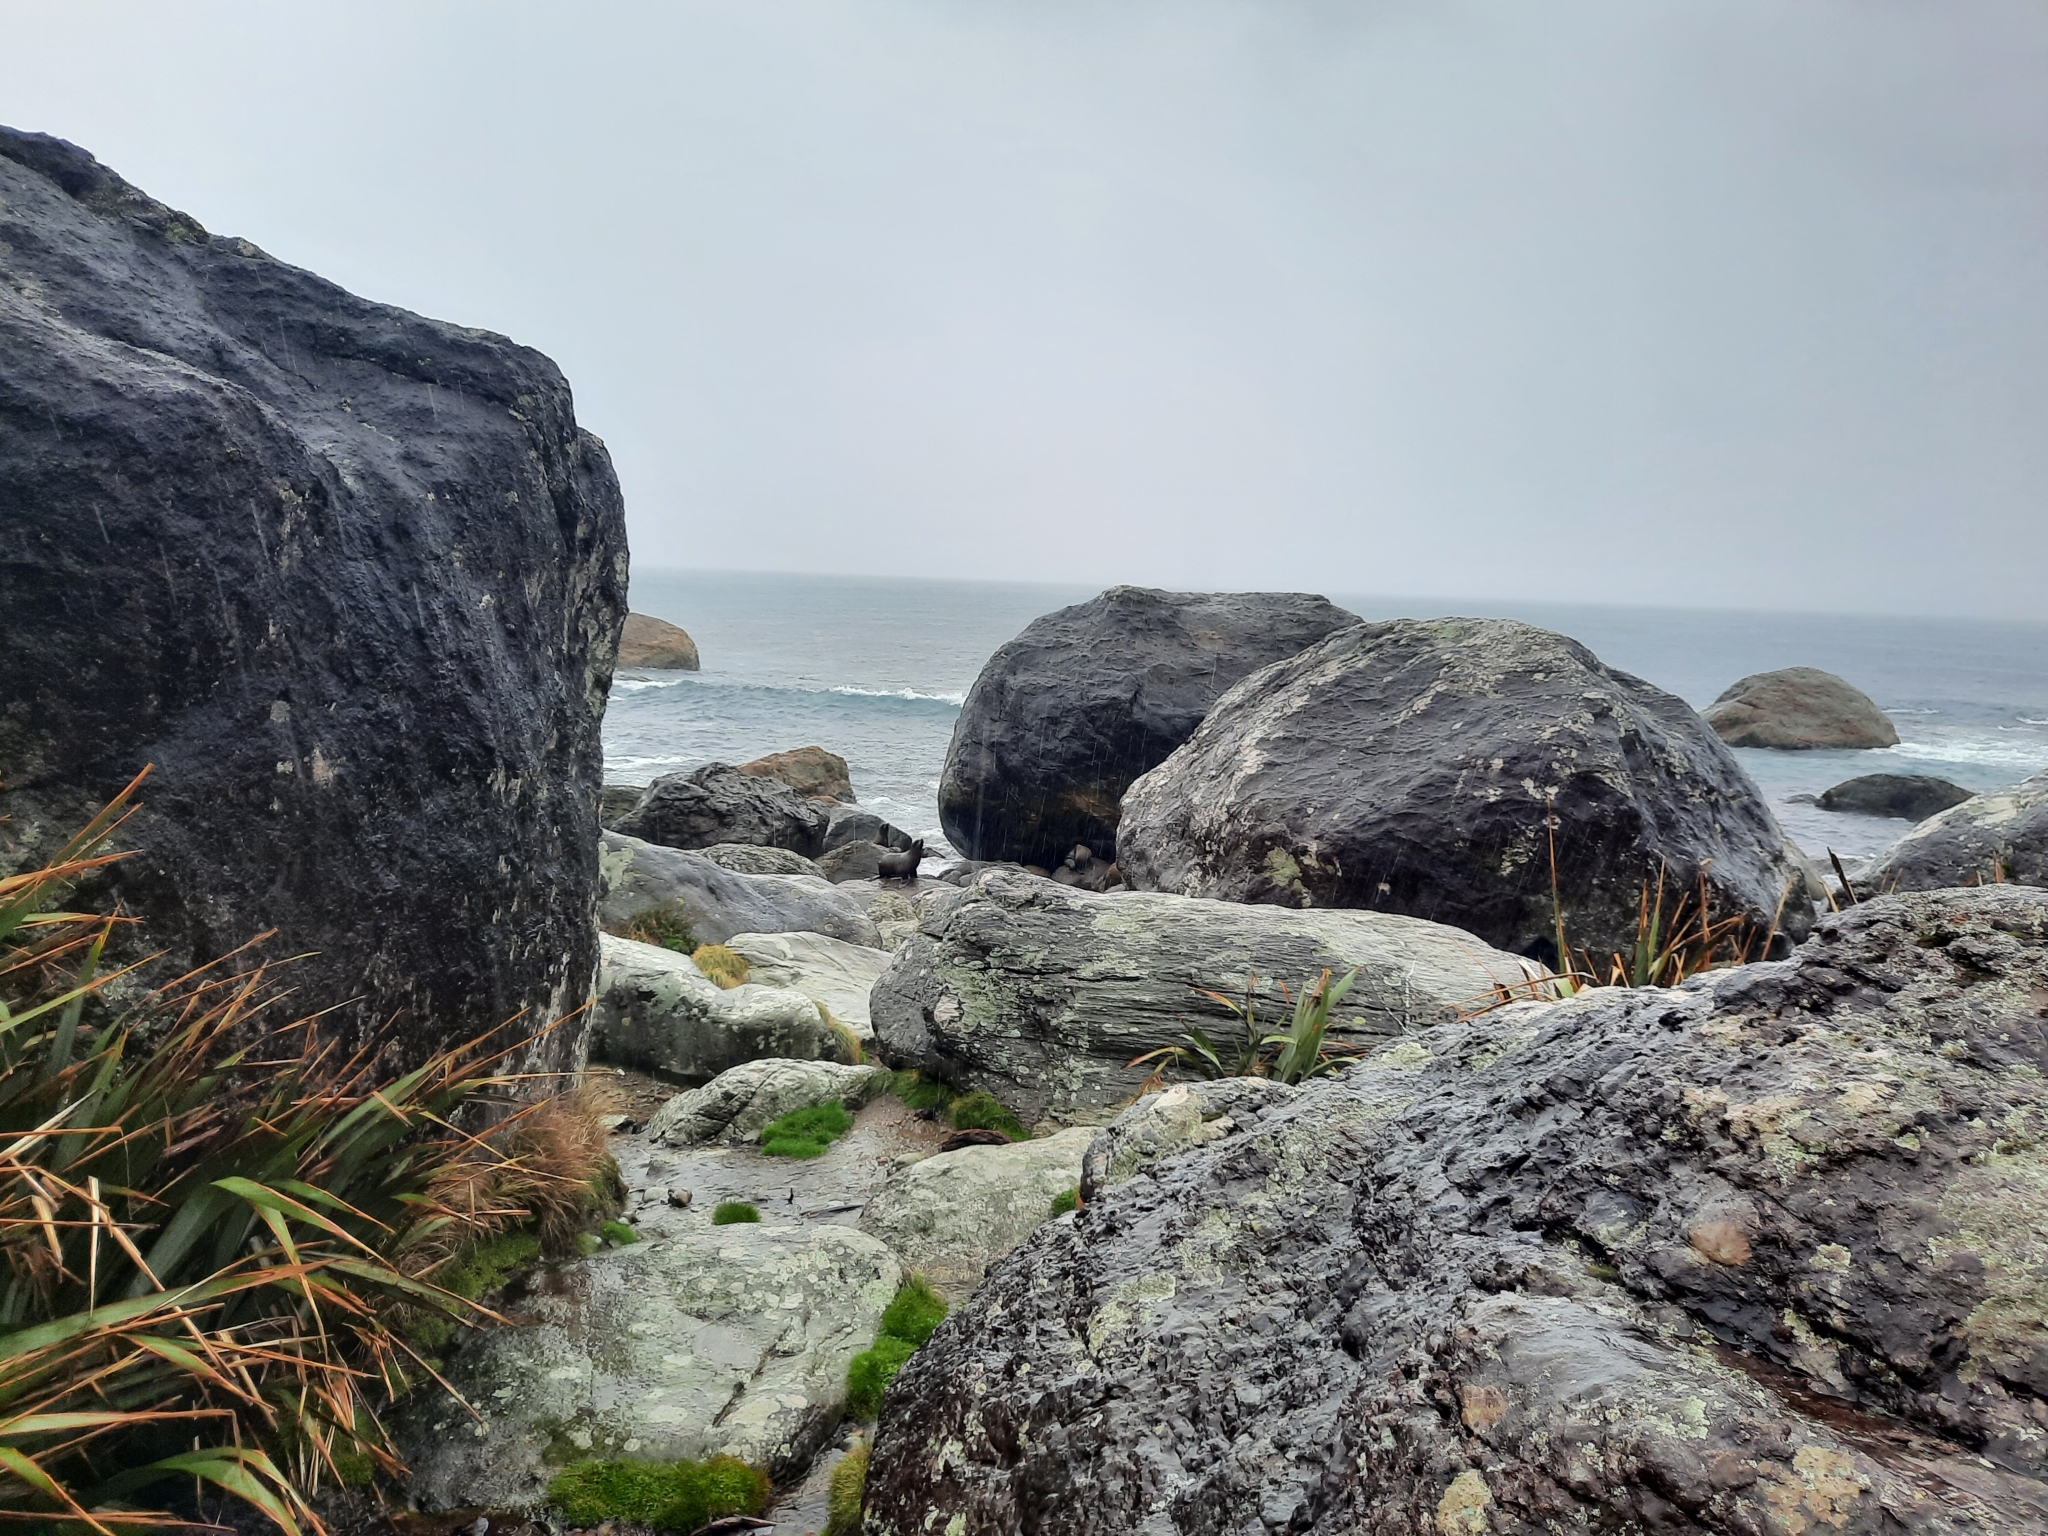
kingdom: Animalia
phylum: Chordata
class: Mammalia
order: Carnivora
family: Otariidae
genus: Arctocephalus
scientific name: Arctocephalus forsteri
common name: New zealand fur seal
